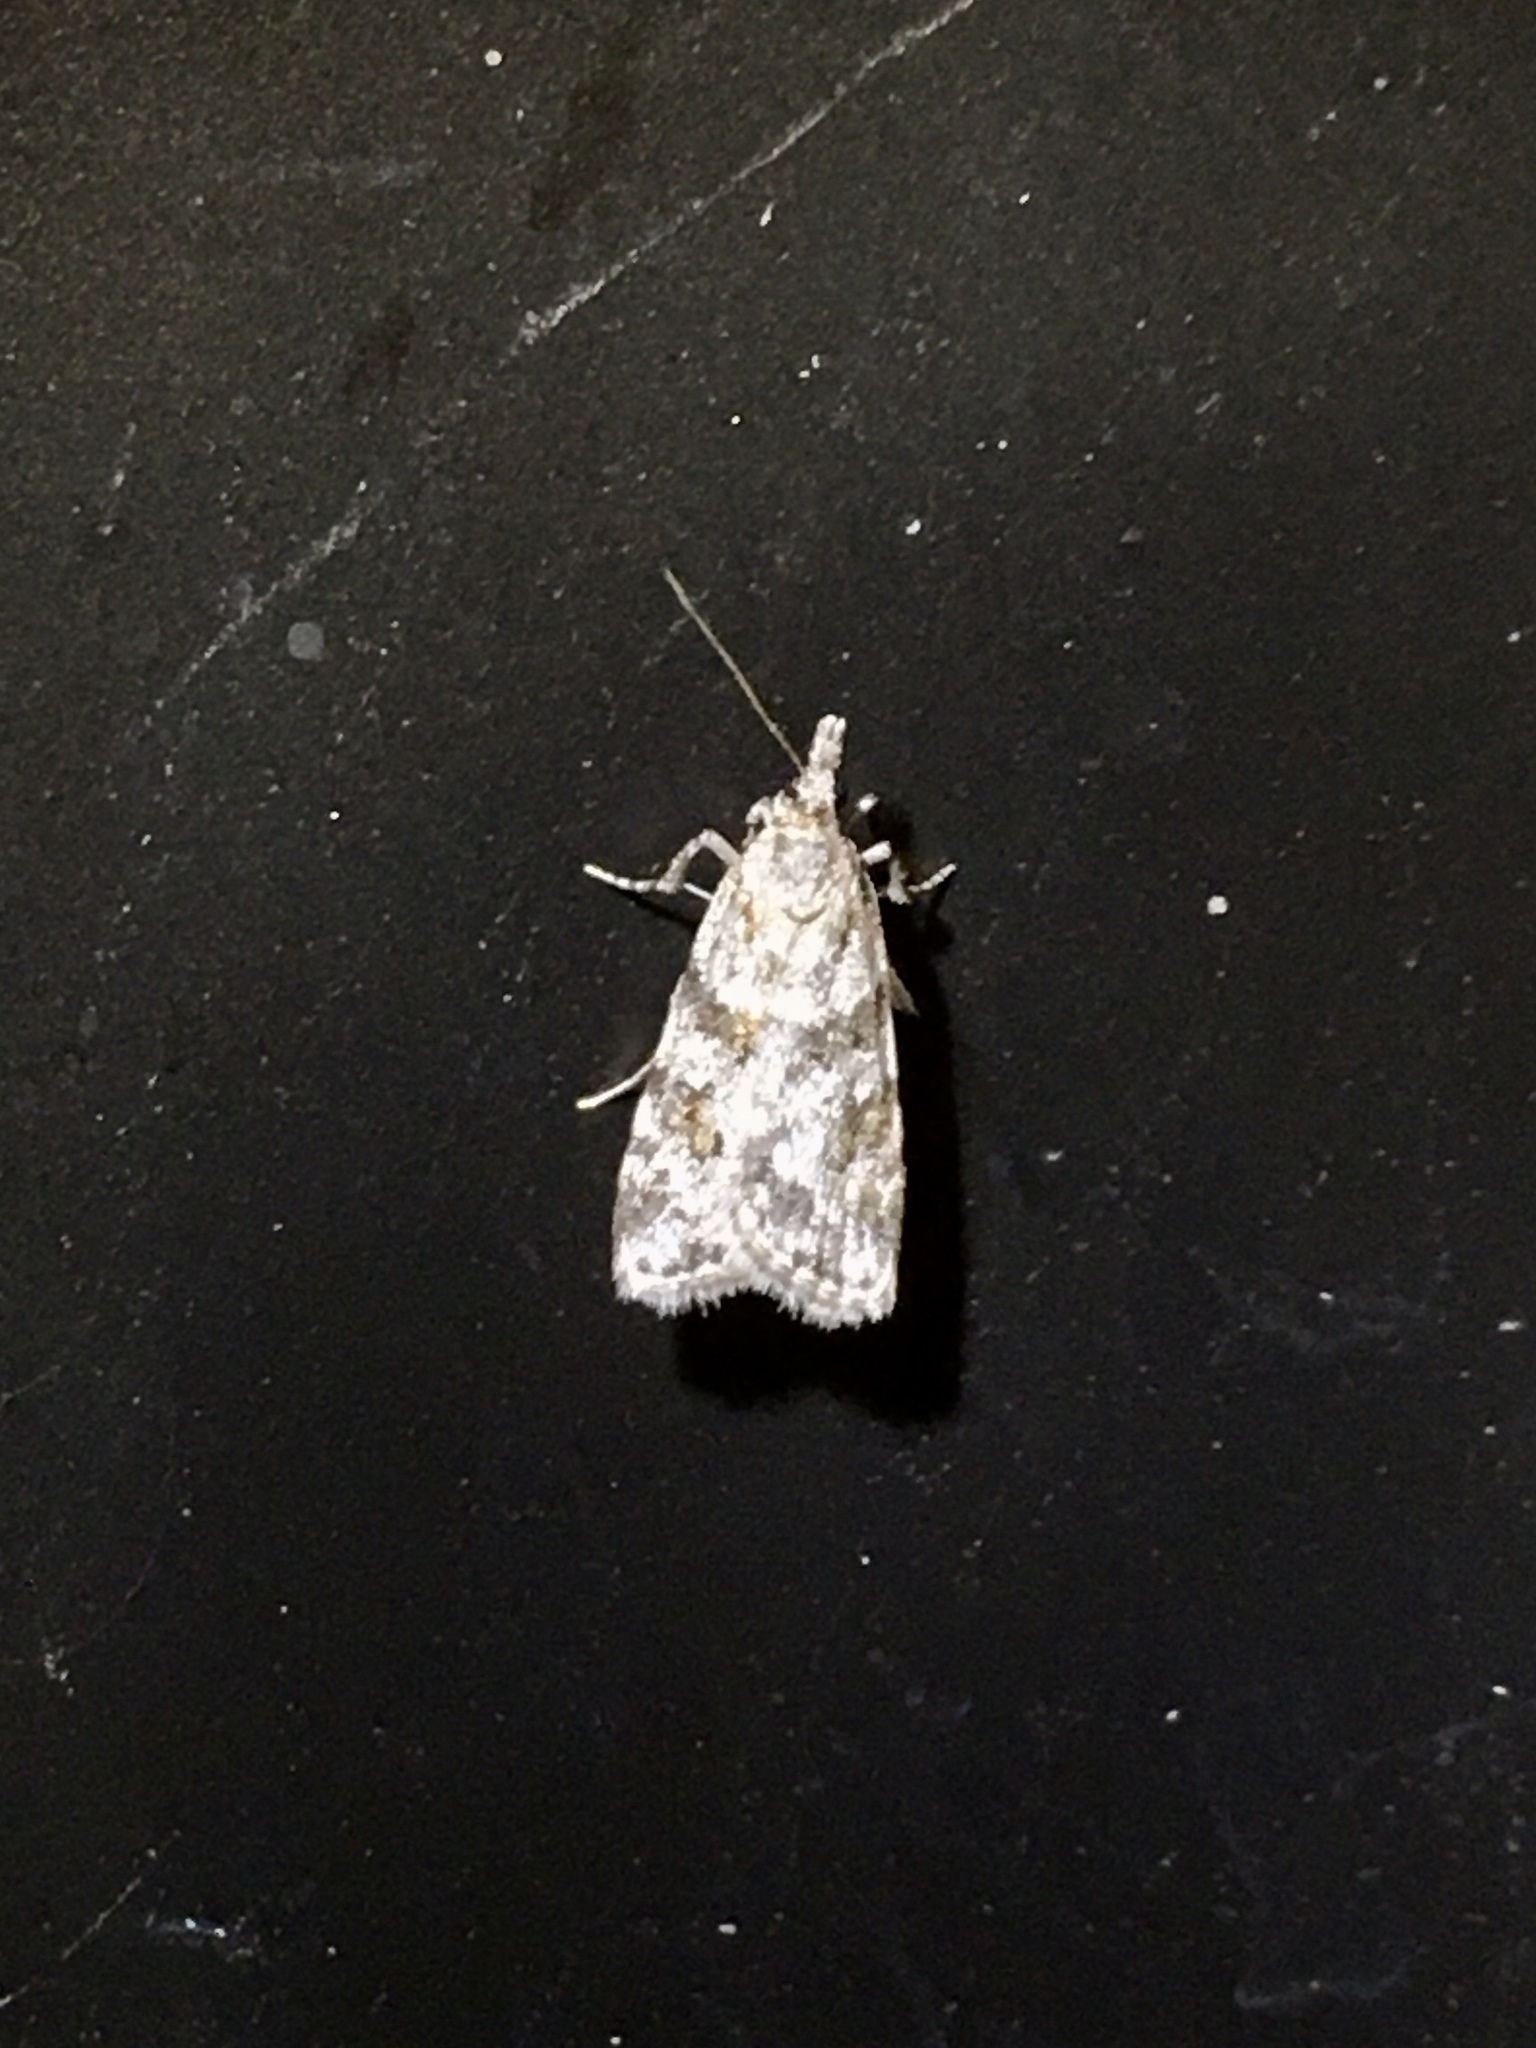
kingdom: Animalia
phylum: Arthropoda
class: Insecta
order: Lepidoptera
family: Crambidae
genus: Scoparia
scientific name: Scoparia biplagialis
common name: Double-striped scoparia moth
